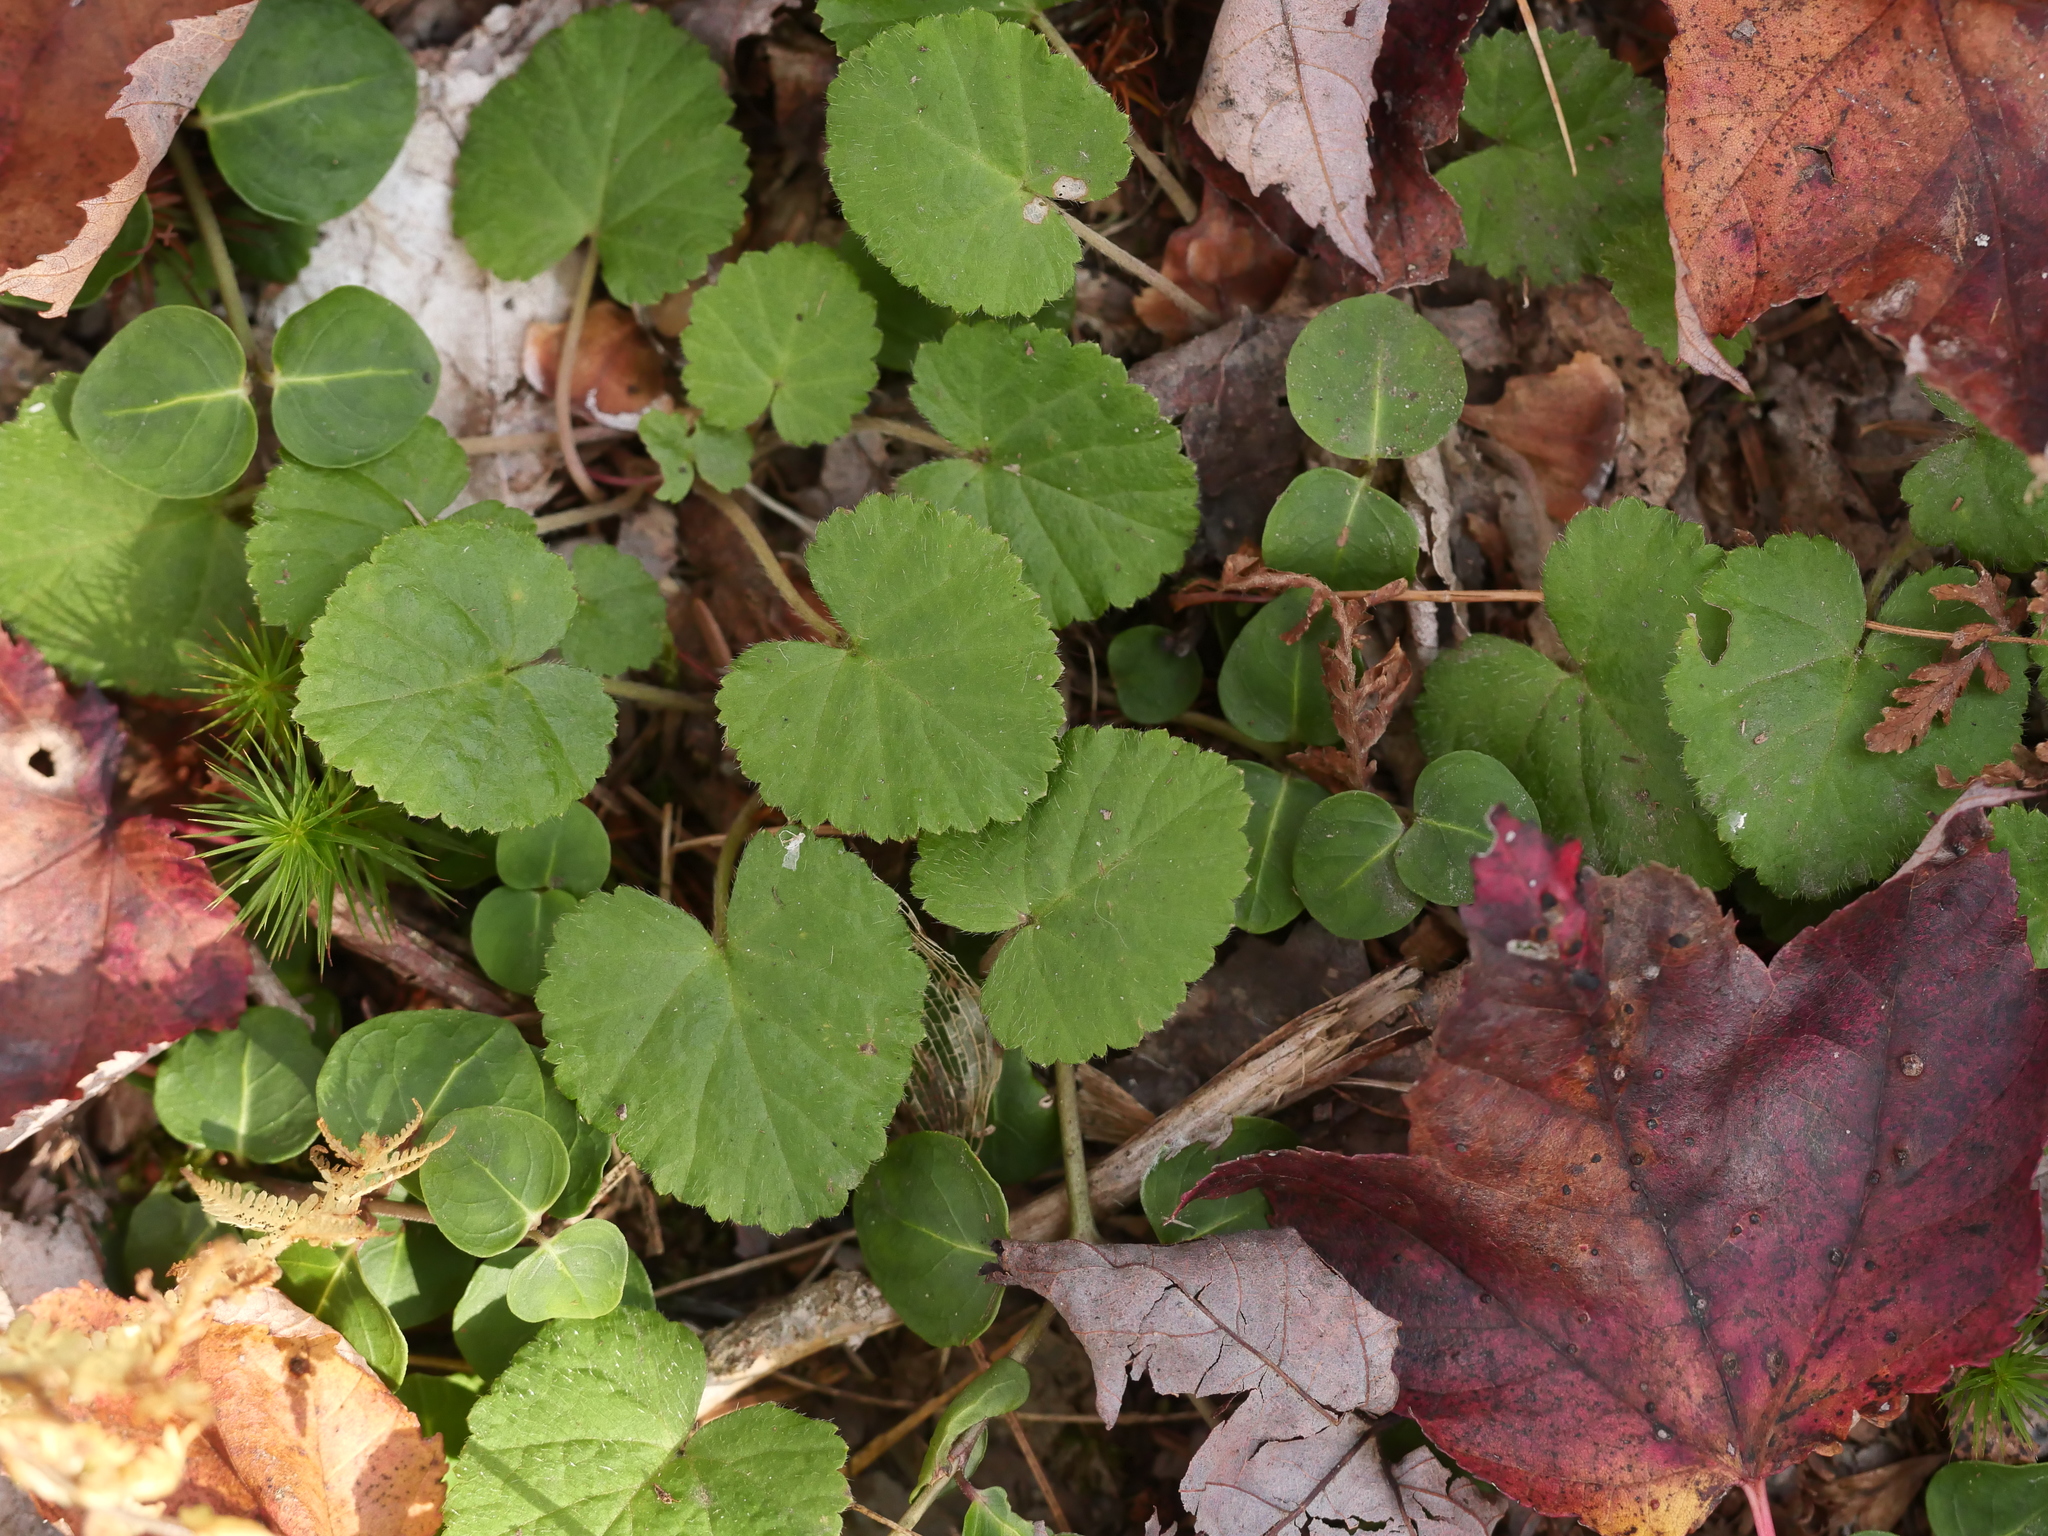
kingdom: Plantae
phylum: Tracheophyta
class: Magnoliopsida
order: Rosales
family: Rosaceae
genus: Dalibarda
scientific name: Dalibarda repens
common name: Dewdrop
